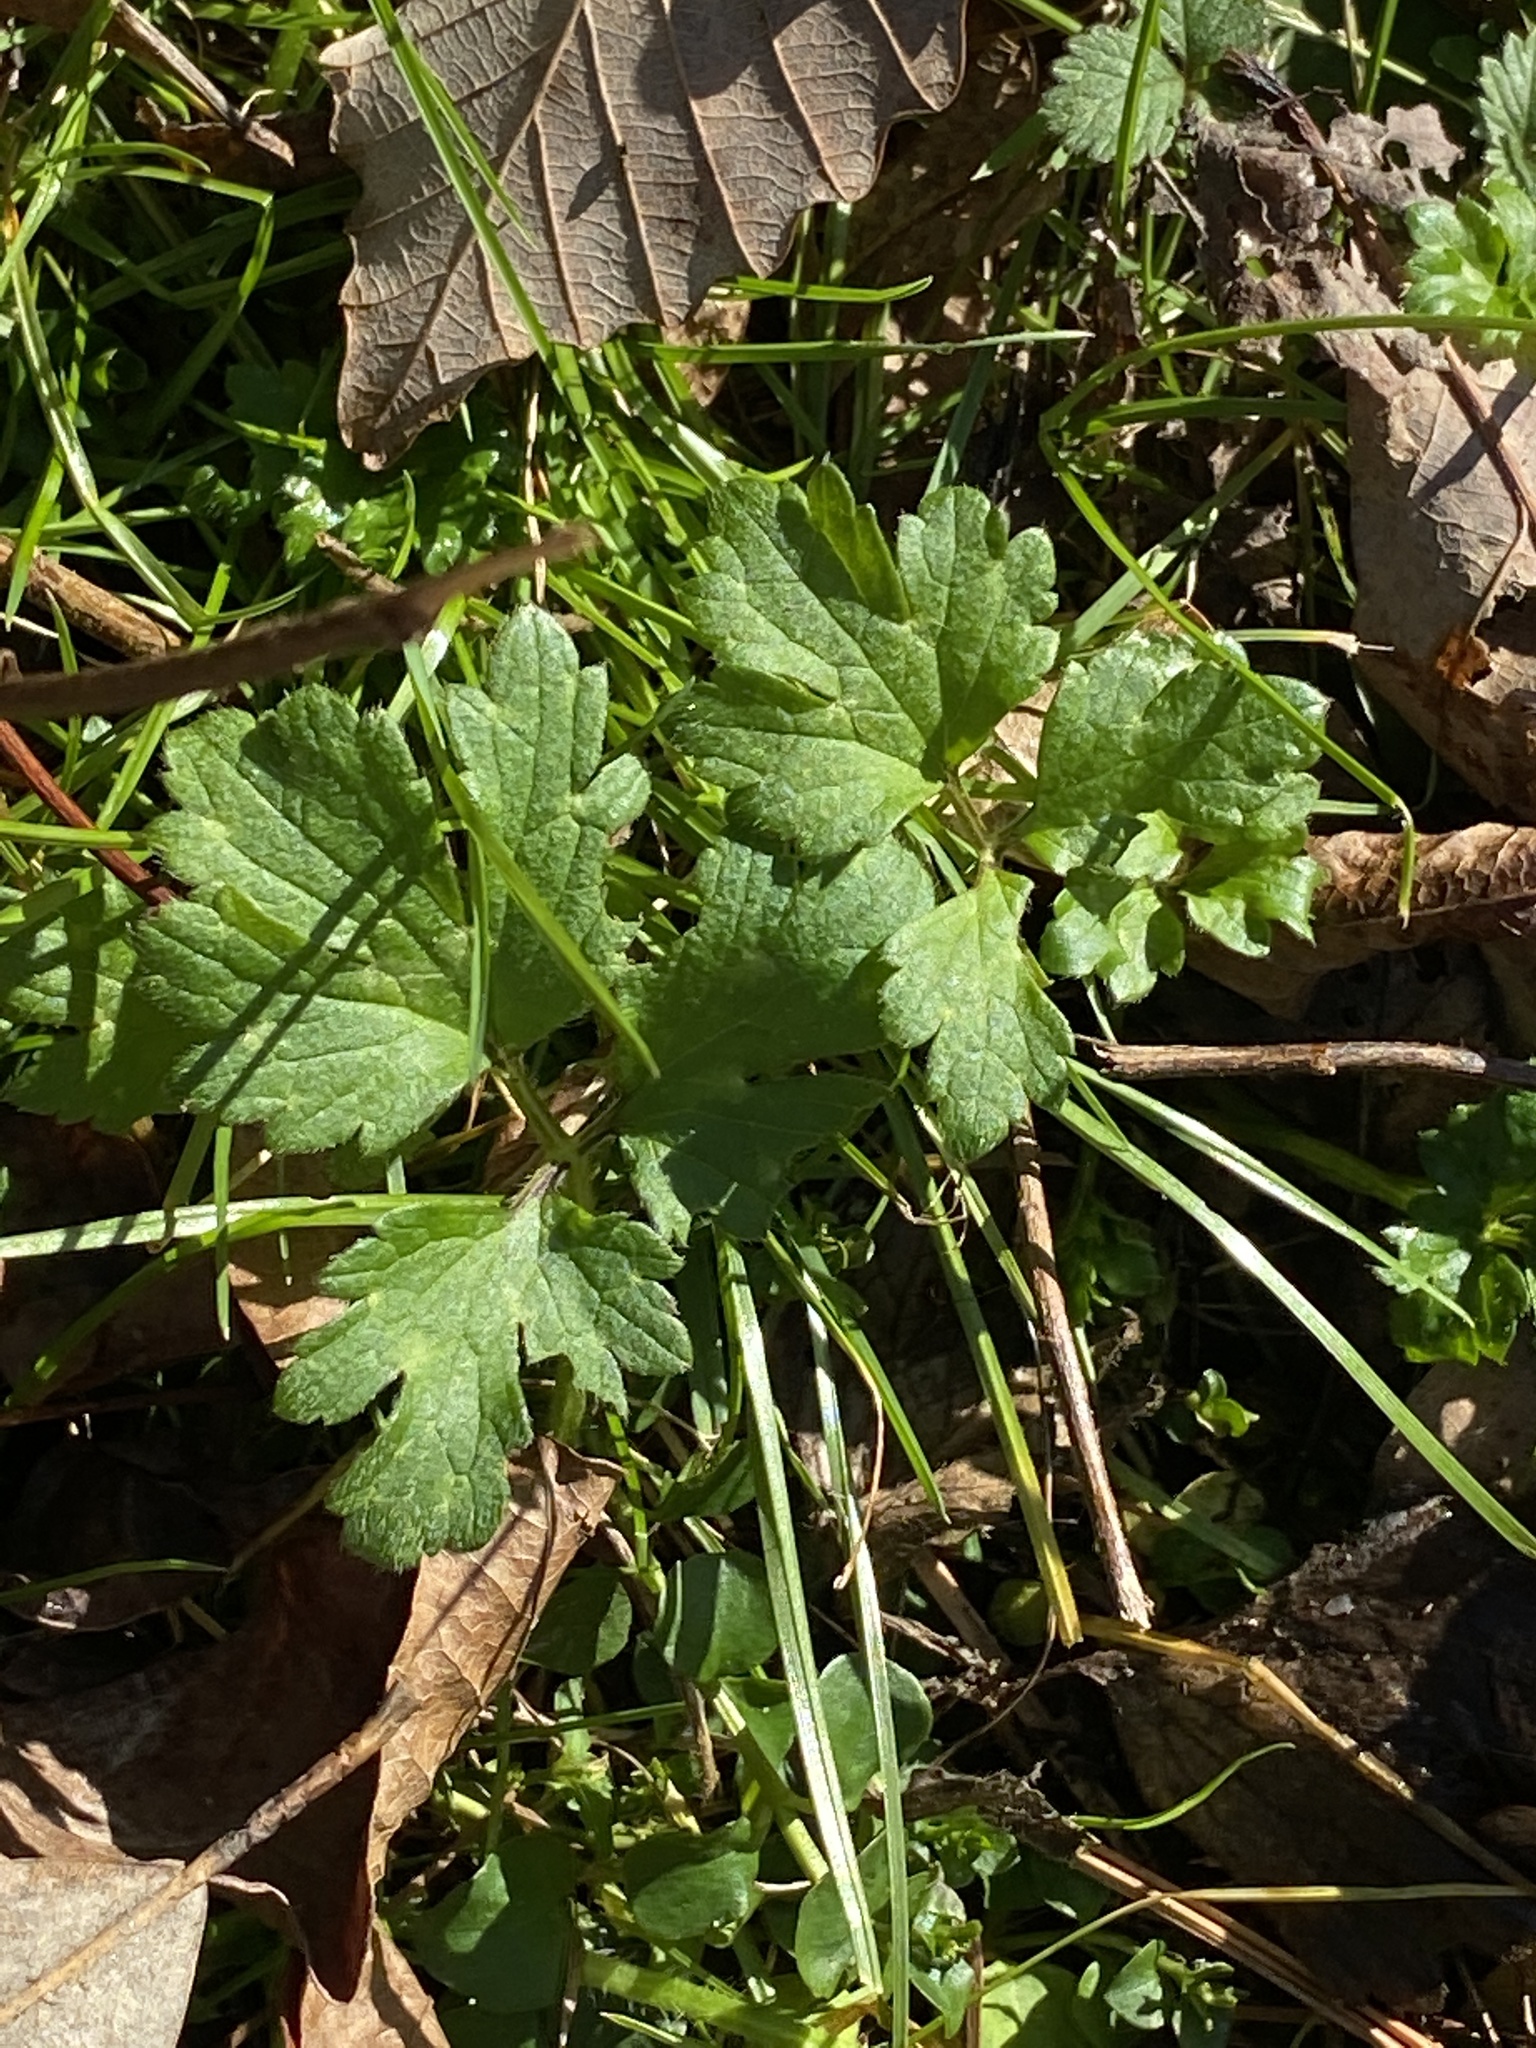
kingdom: Plantae
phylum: Tracheophyta
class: Magnoliopsida
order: Ranunculales
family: Ranunculaceae
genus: Ranunculus
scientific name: Ranunculus repens
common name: Creeping buttercup
